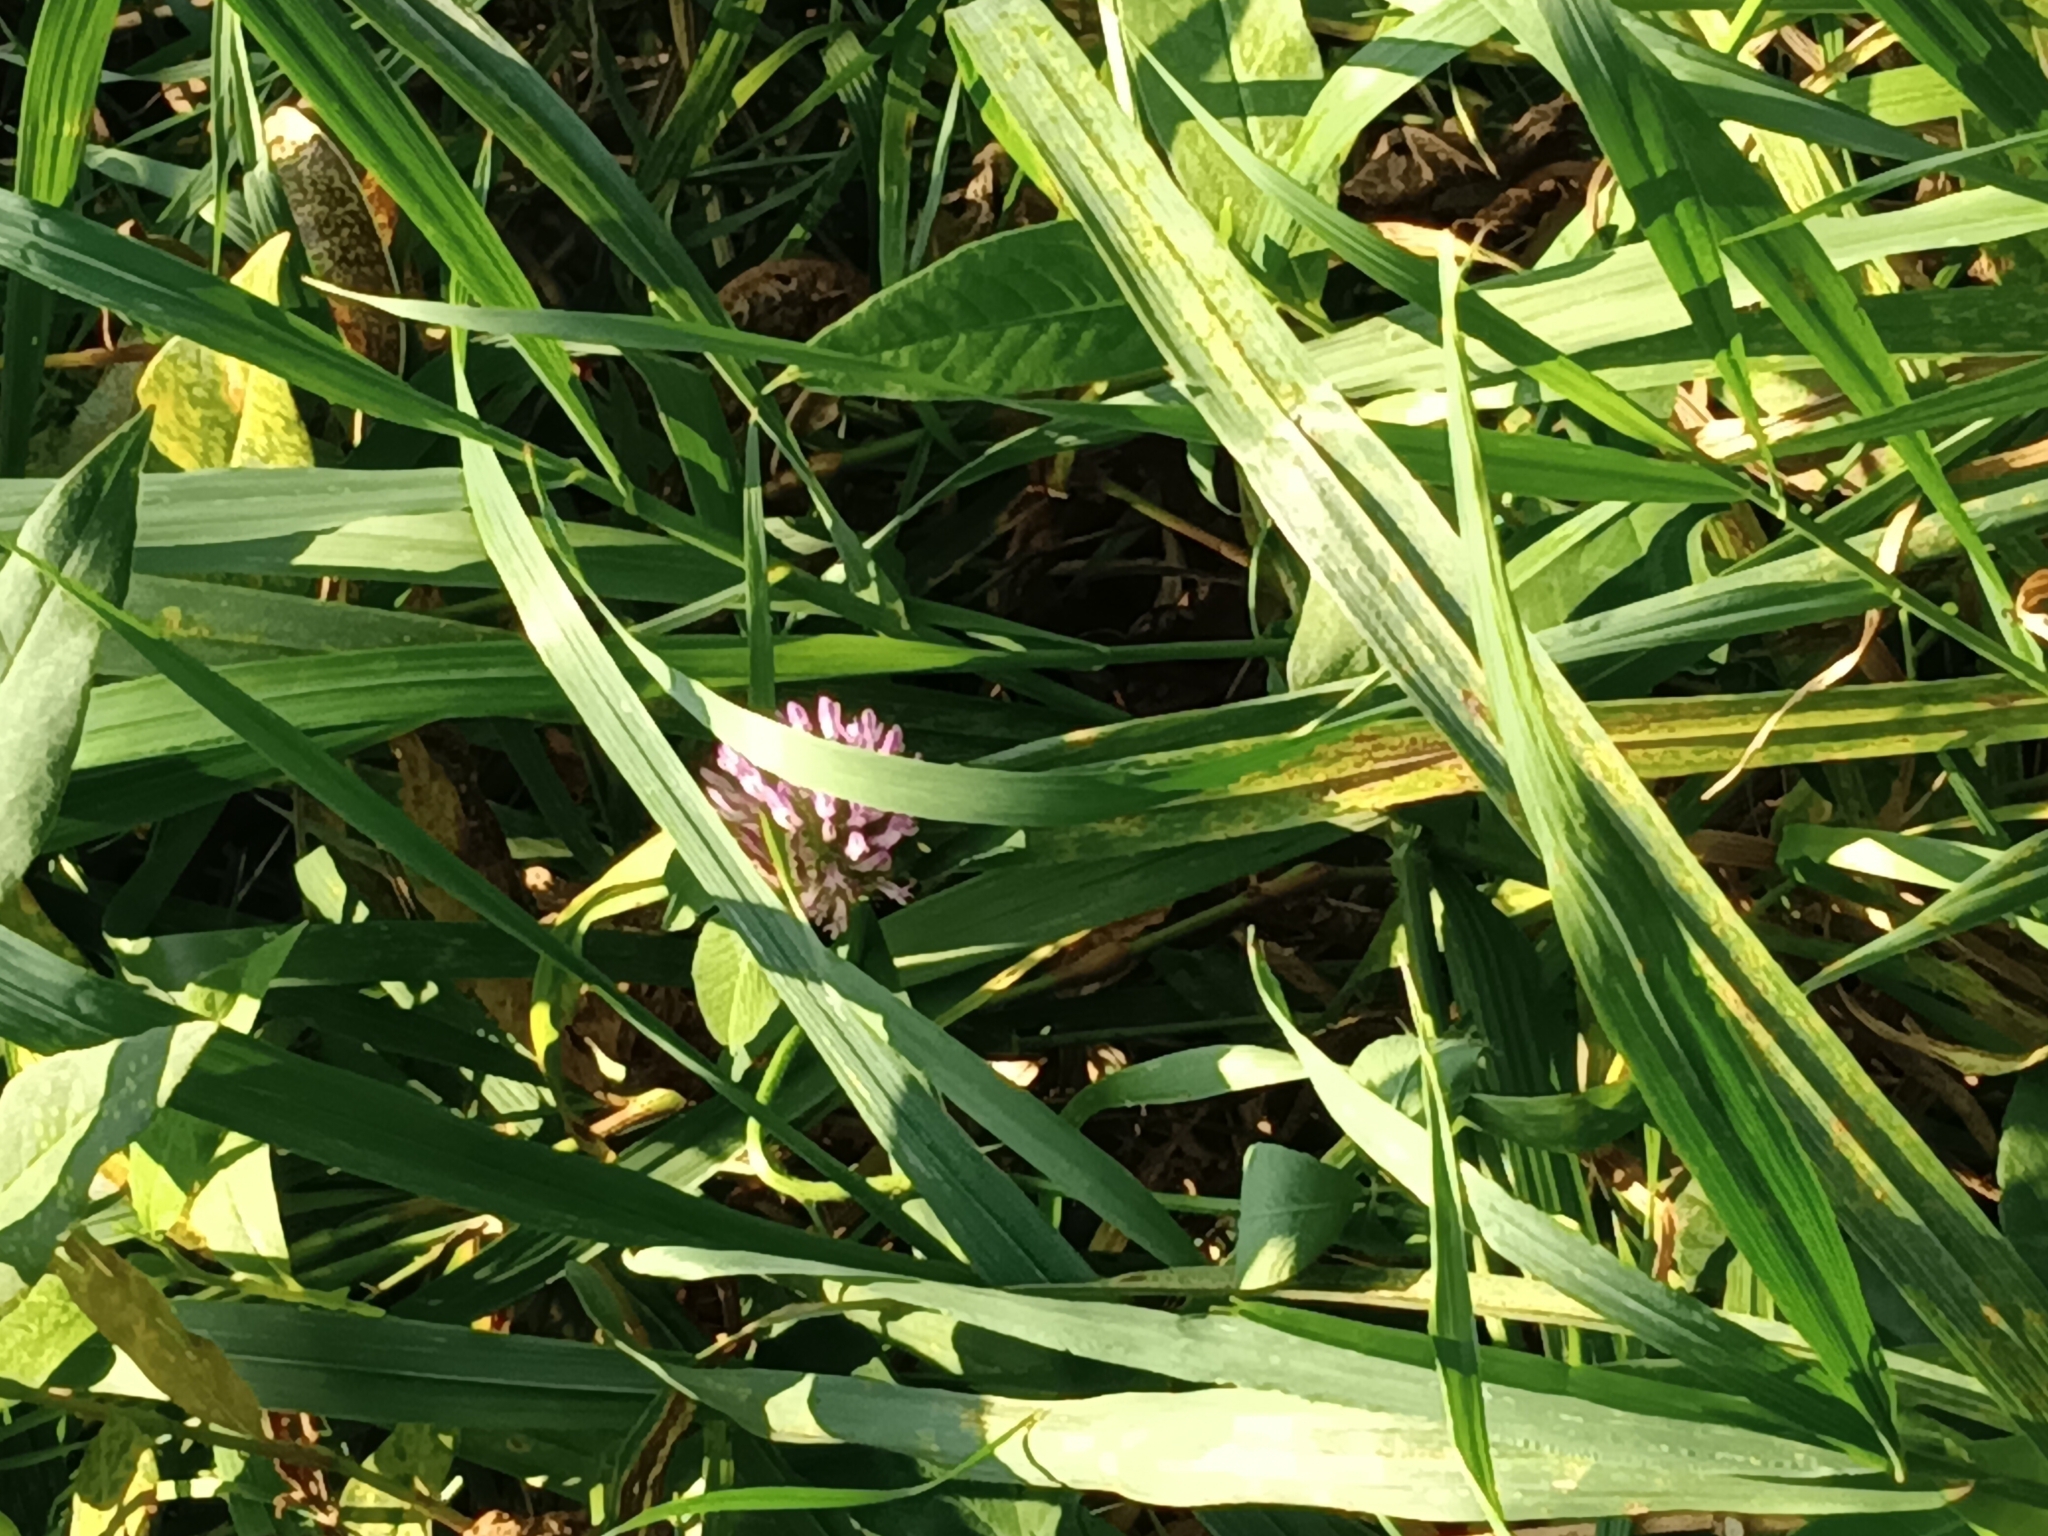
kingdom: Plantae
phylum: Tracheophyta
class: Magnoliopsida
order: Fabales
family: Fabaceae
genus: Trifolium
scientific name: Trifolium pratense
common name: Red clover
